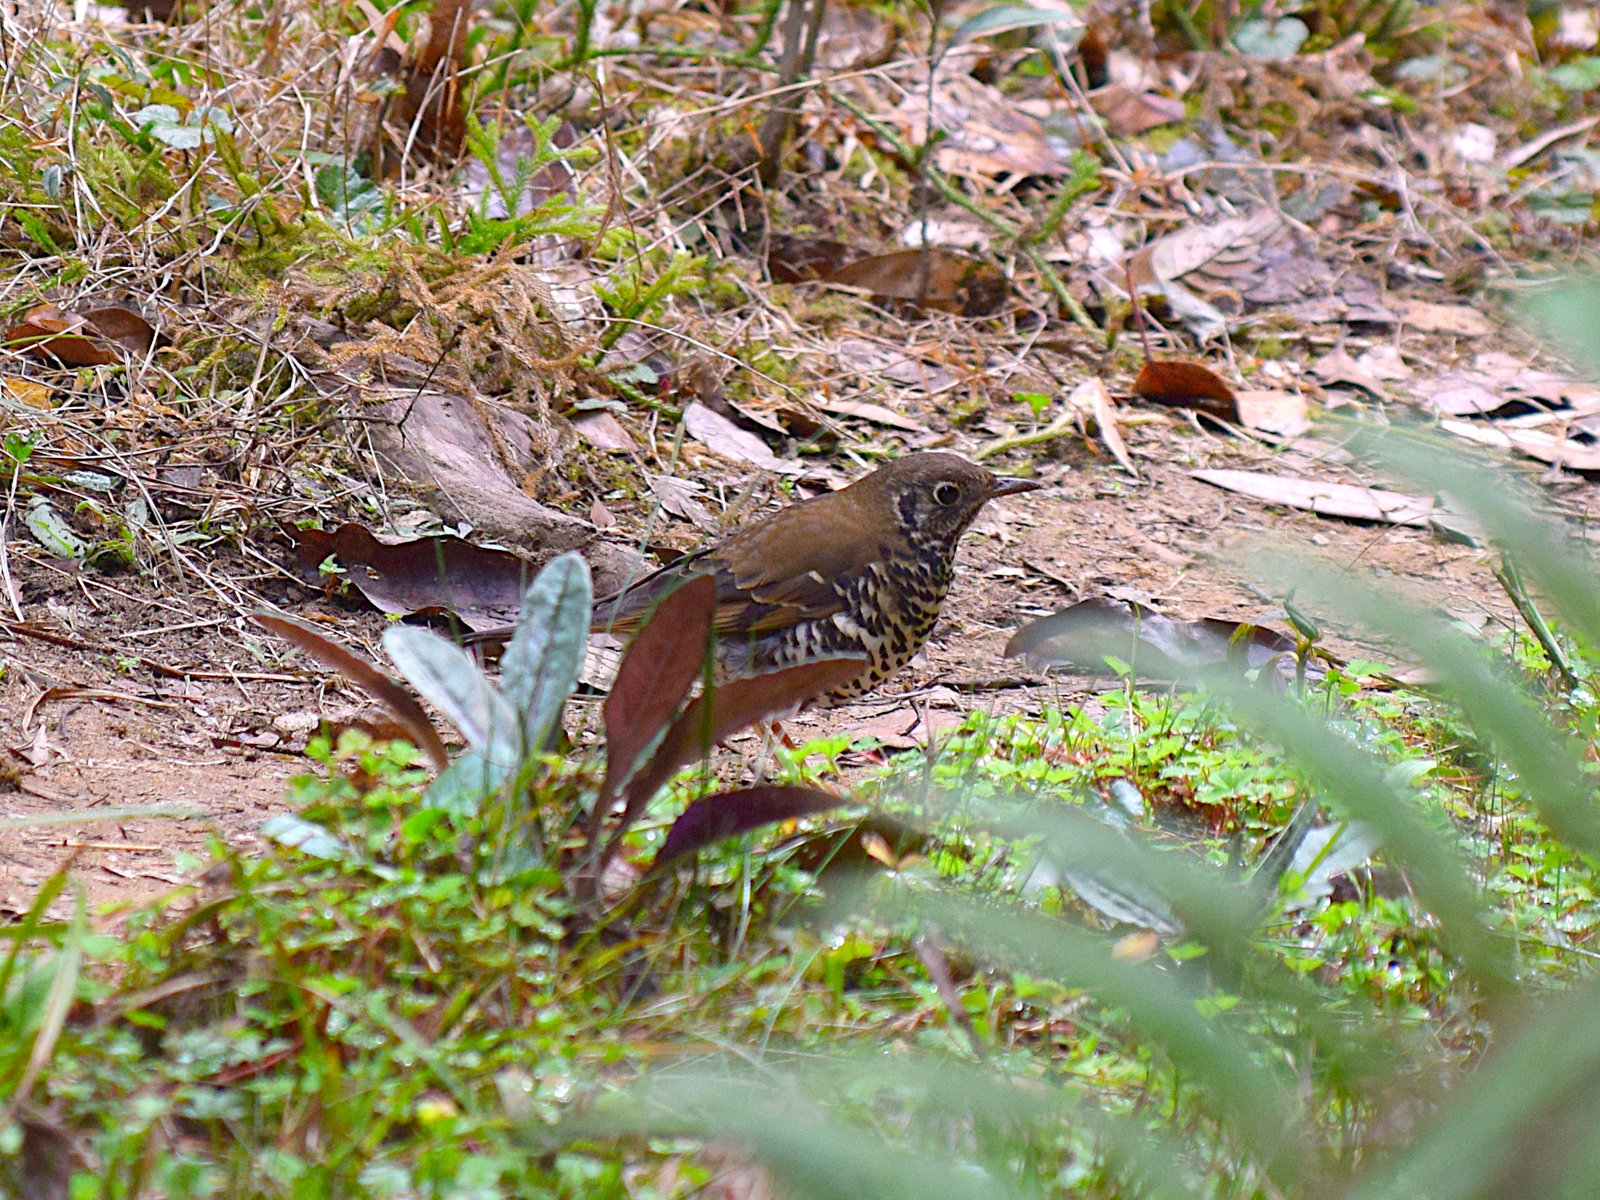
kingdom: Animalia
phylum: Chordata
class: Aves
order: Passeriformes
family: Turdidae
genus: Zoothera
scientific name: Zoothera dixoni
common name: Long-tailed thrush
